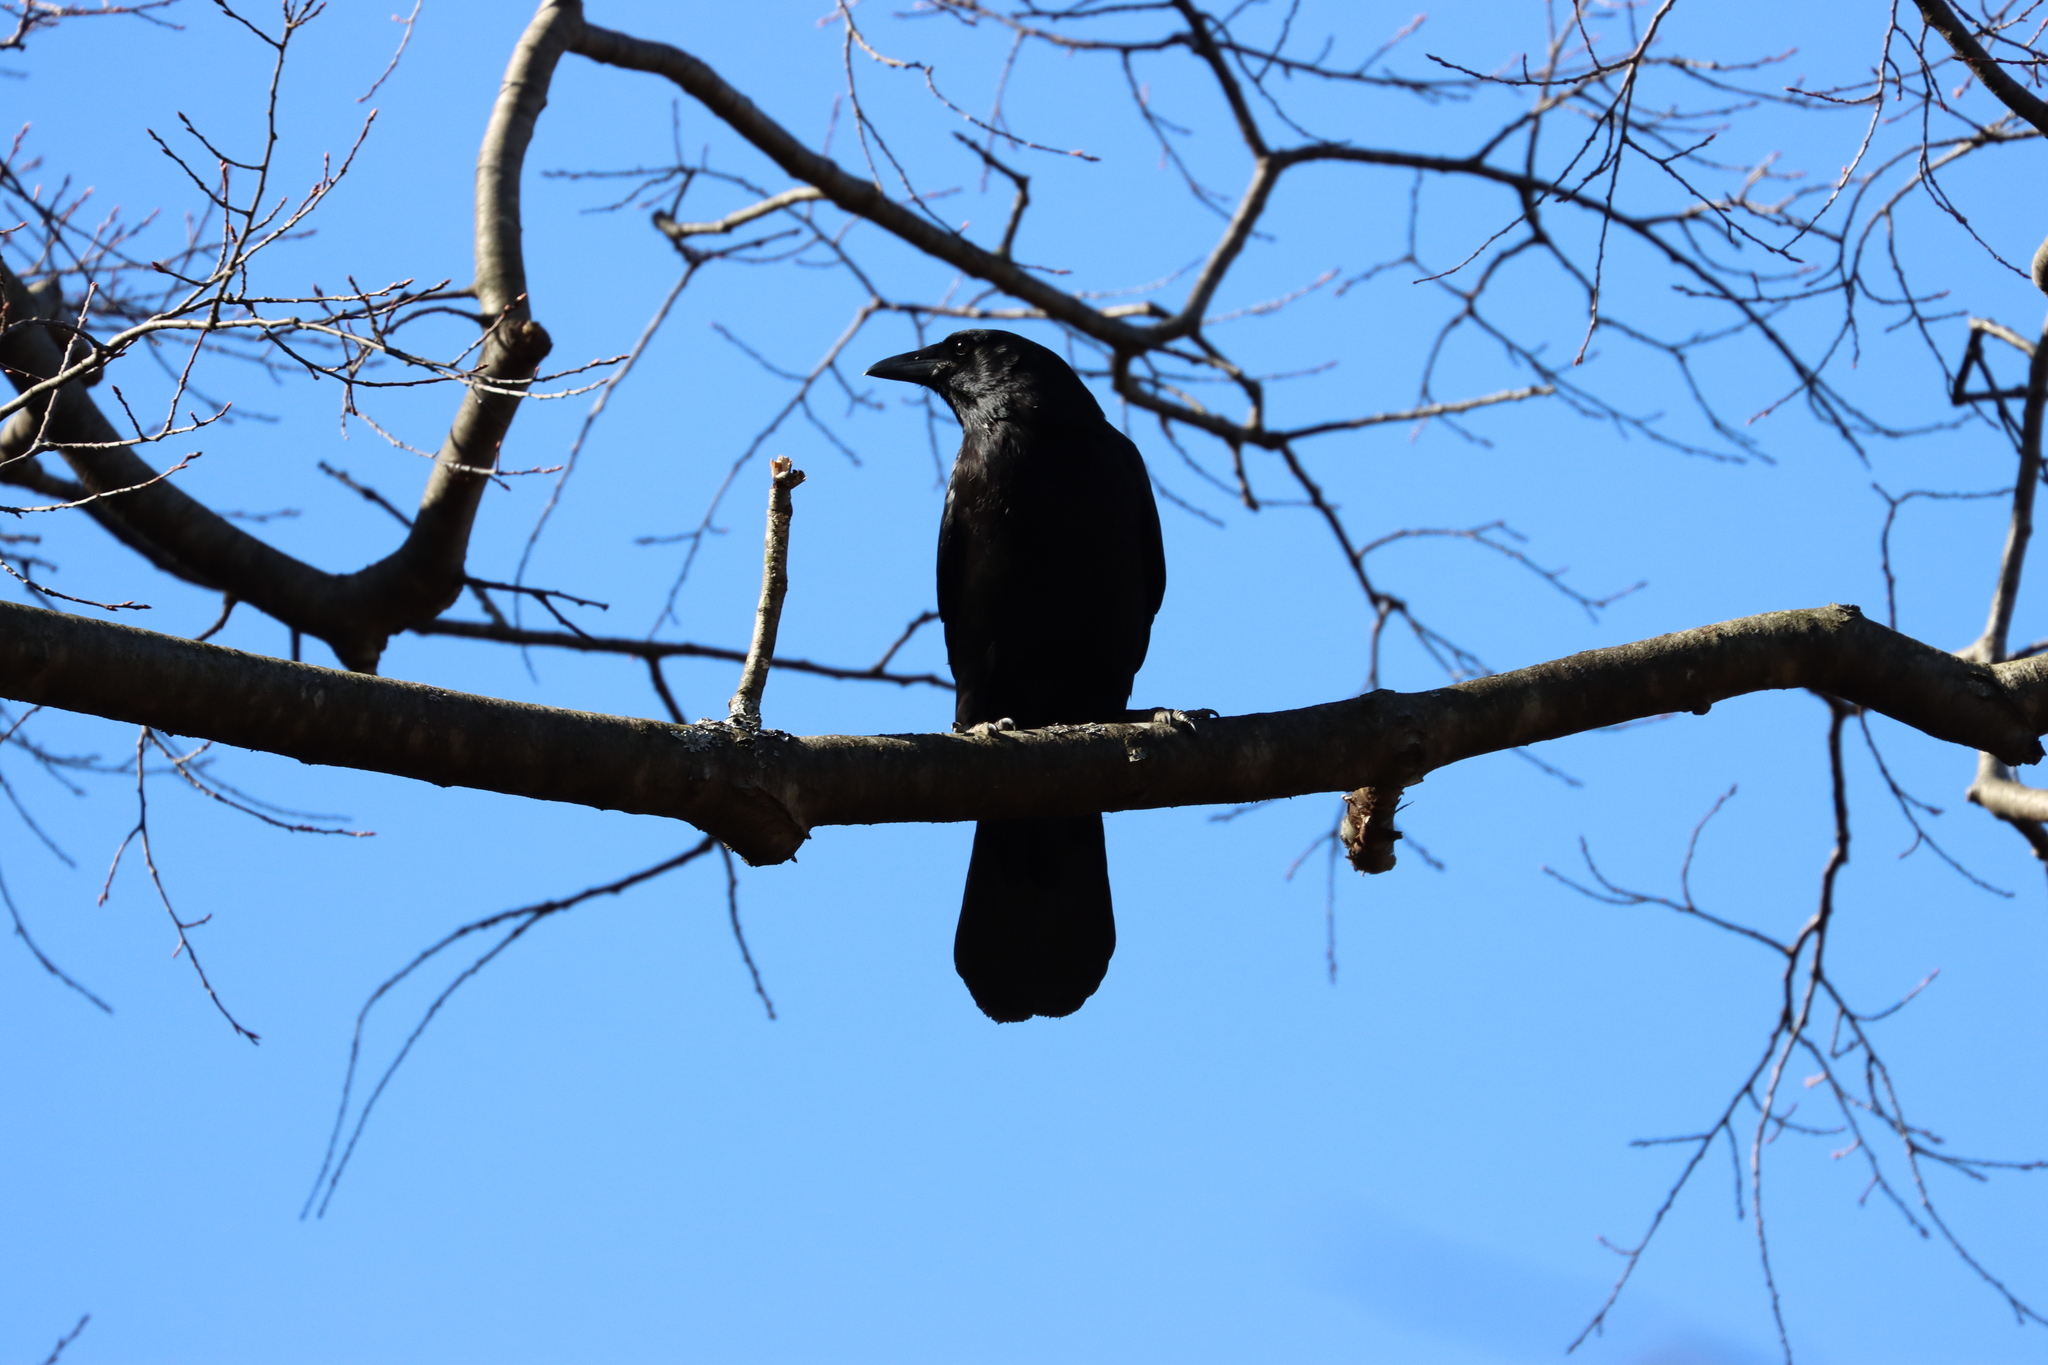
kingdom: Animalia
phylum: Chordata
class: Aves
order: Passeriformes
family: Corvidae
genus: Corvus
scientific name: Corvus brachyrhynchos
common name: American crow
